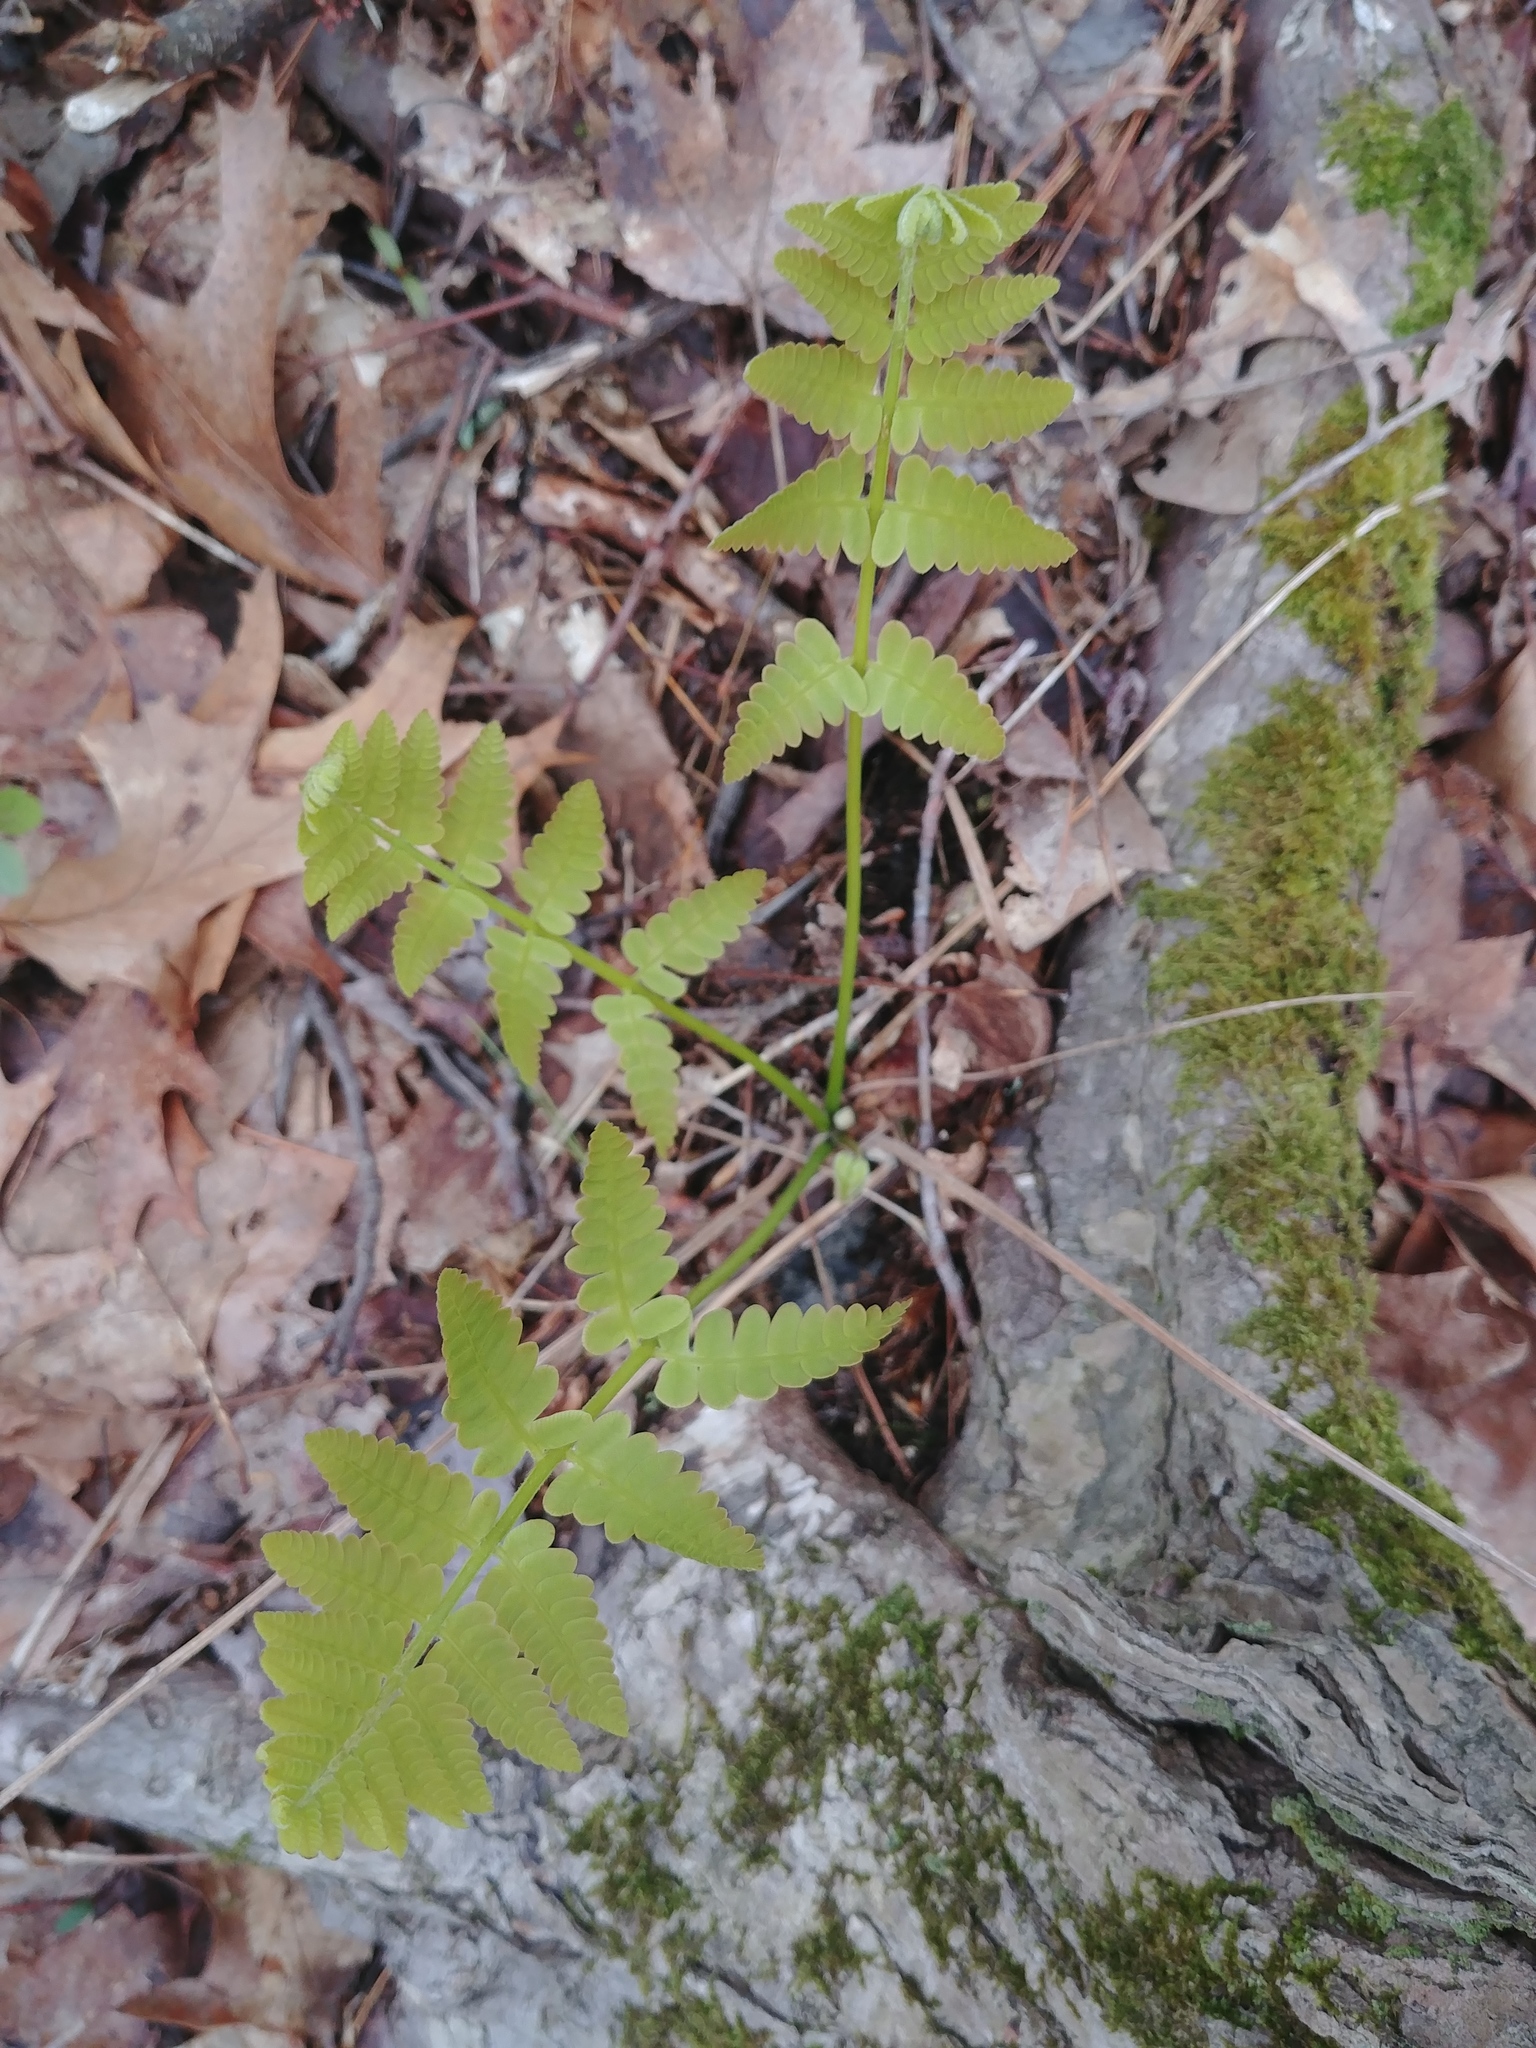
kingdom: Plantae
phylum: Tracheophyta
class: Polypodiopsida
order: Osmundales
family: Osmundaceae
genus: Claytosmunda
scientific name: Claytosmunda claytoniana
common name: Clayton's fern
